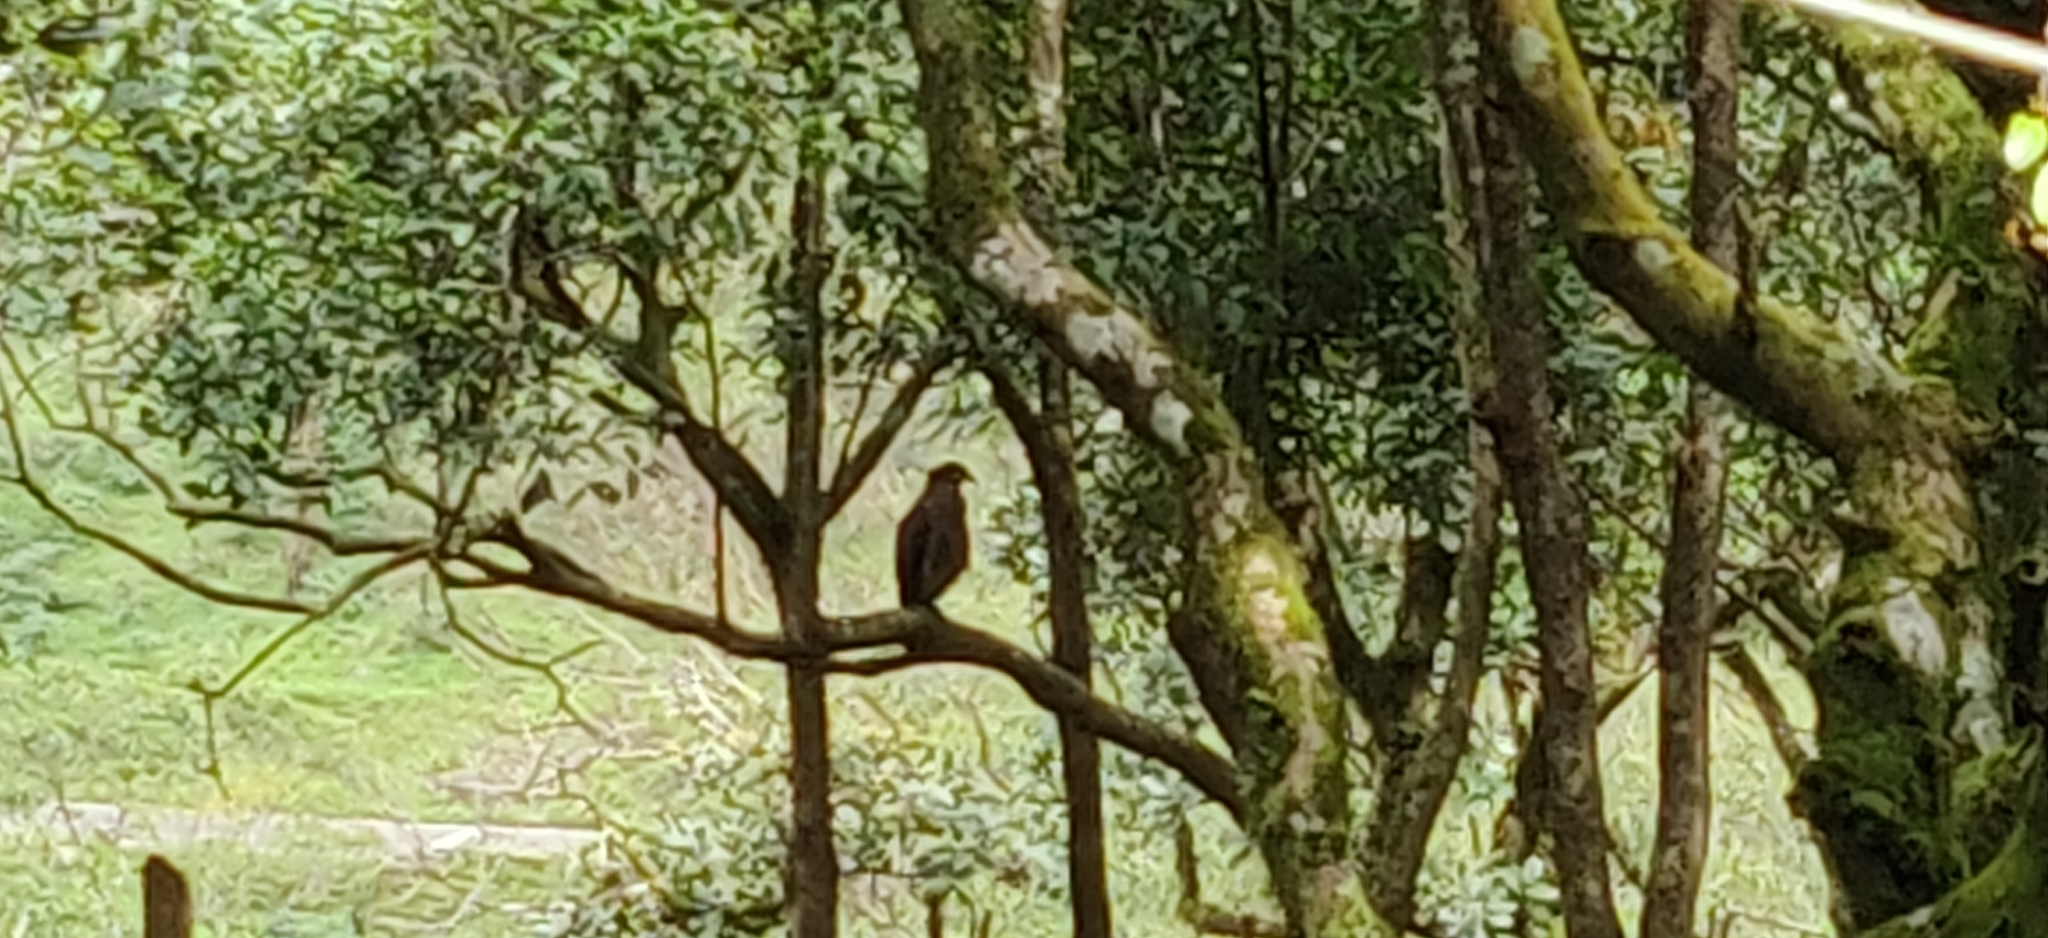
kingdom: Animalia
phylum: Chordata
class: Aves
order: Accipitriformes
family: Accipitridae
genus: Spilornis
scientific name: Spilornis cheela
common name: Crested serpent eagle
